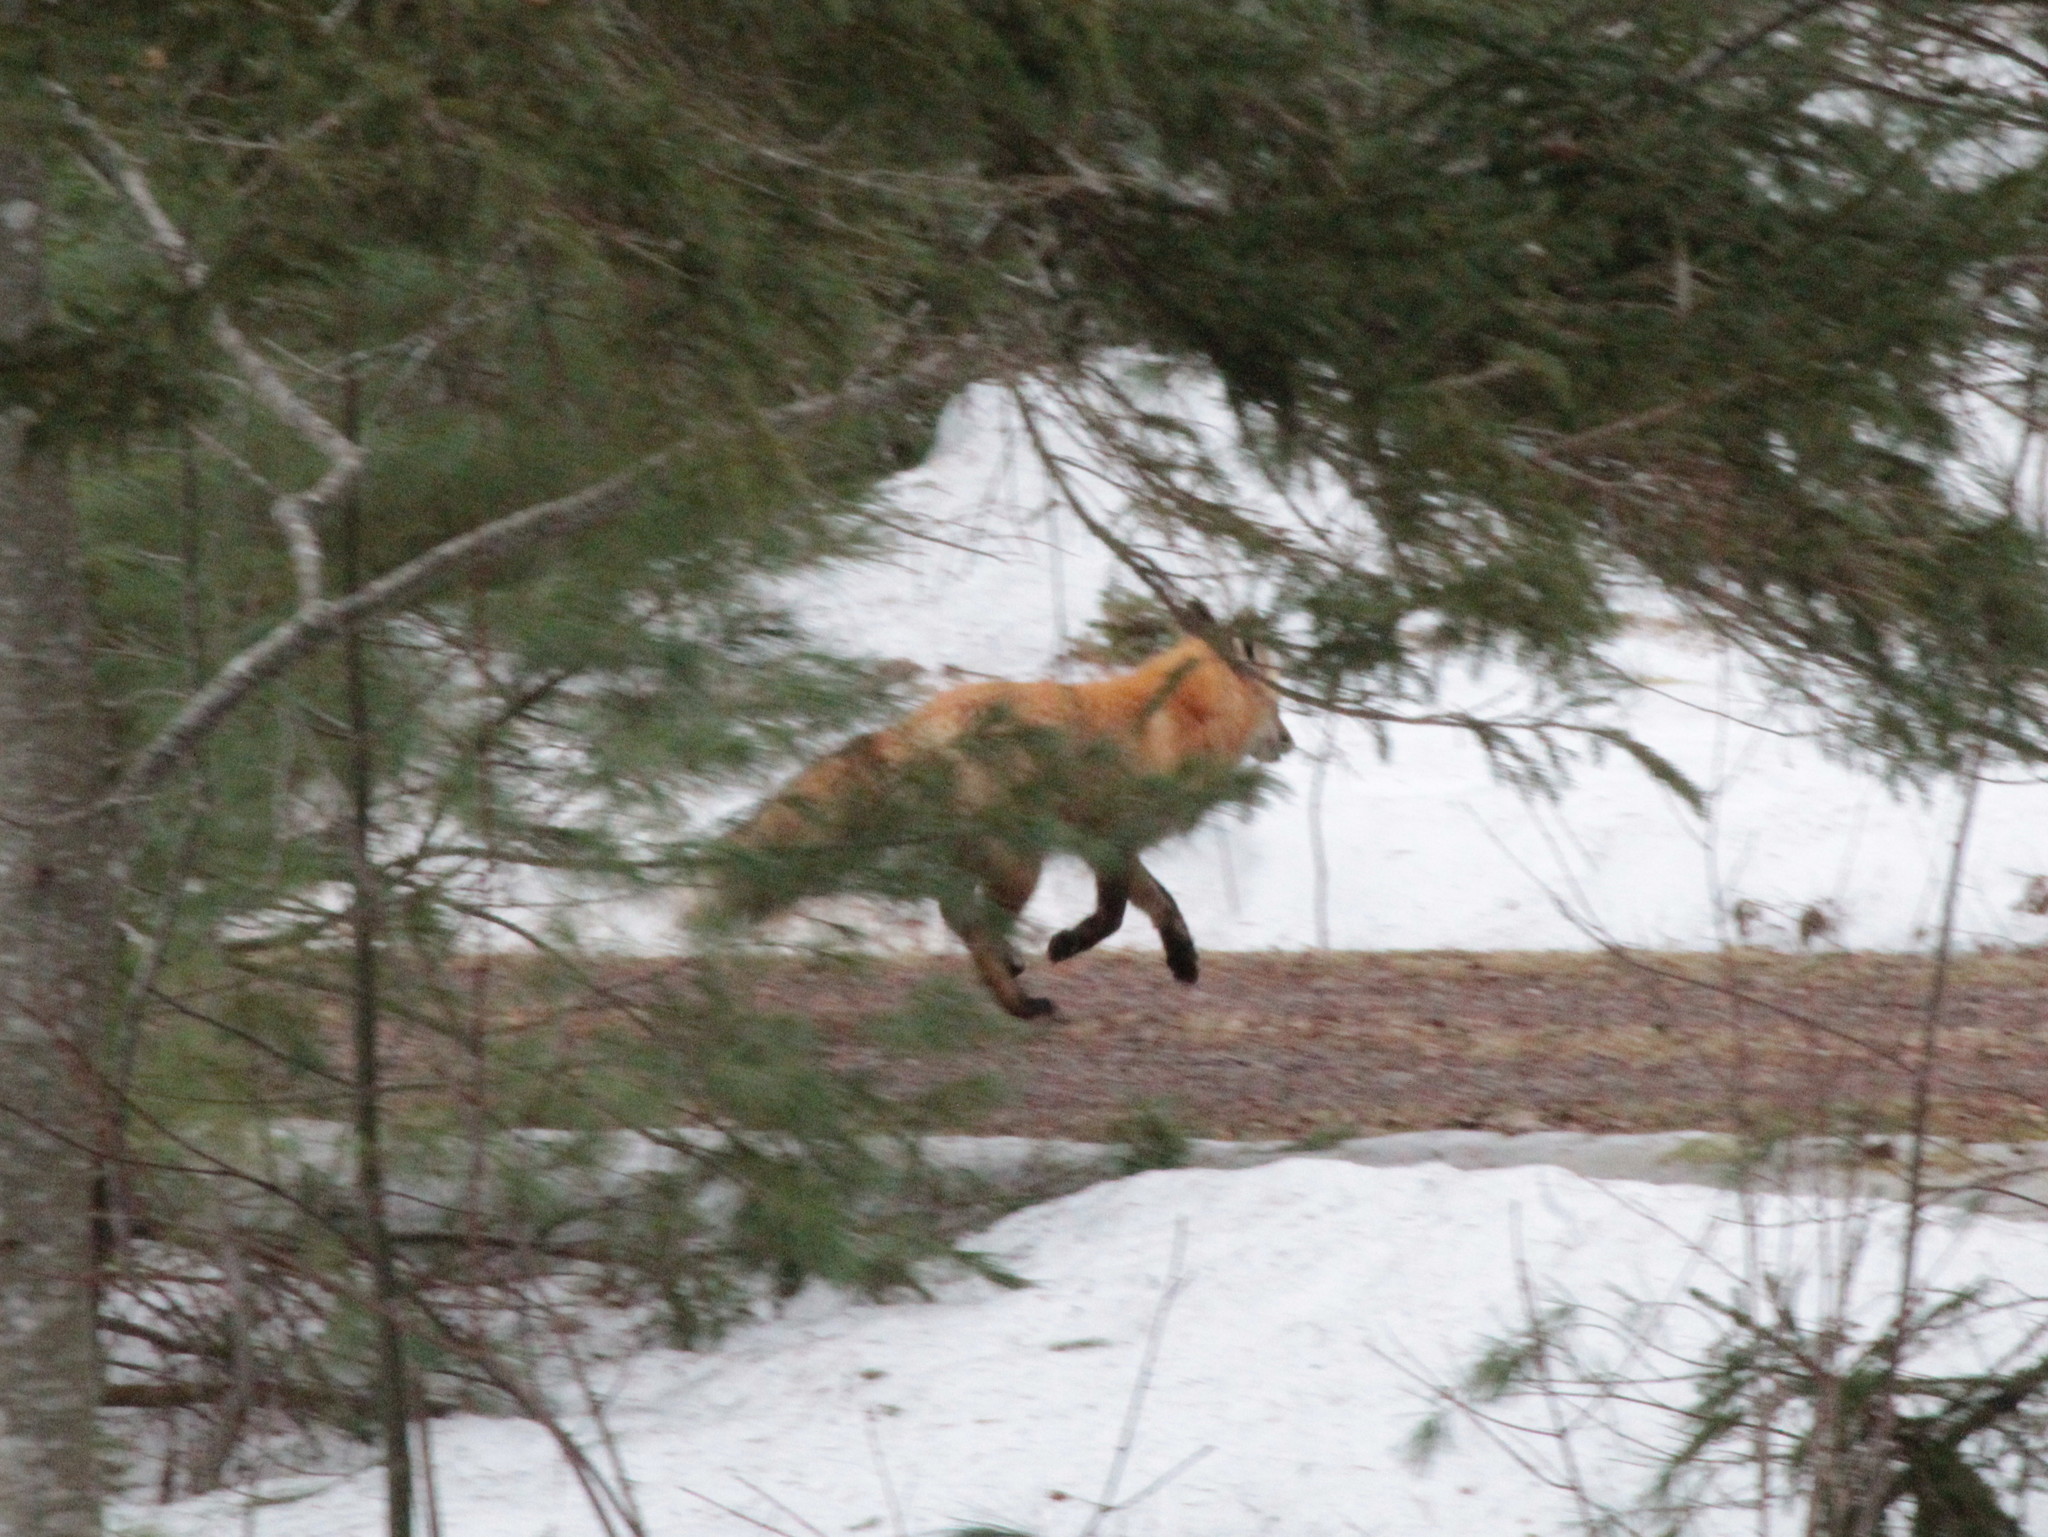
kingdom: Animalia
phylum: Chordata
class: Mammalia
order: Carnivora
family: Canidae
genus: Vulpes
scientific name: Vulpes vulpes
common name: Red fox
